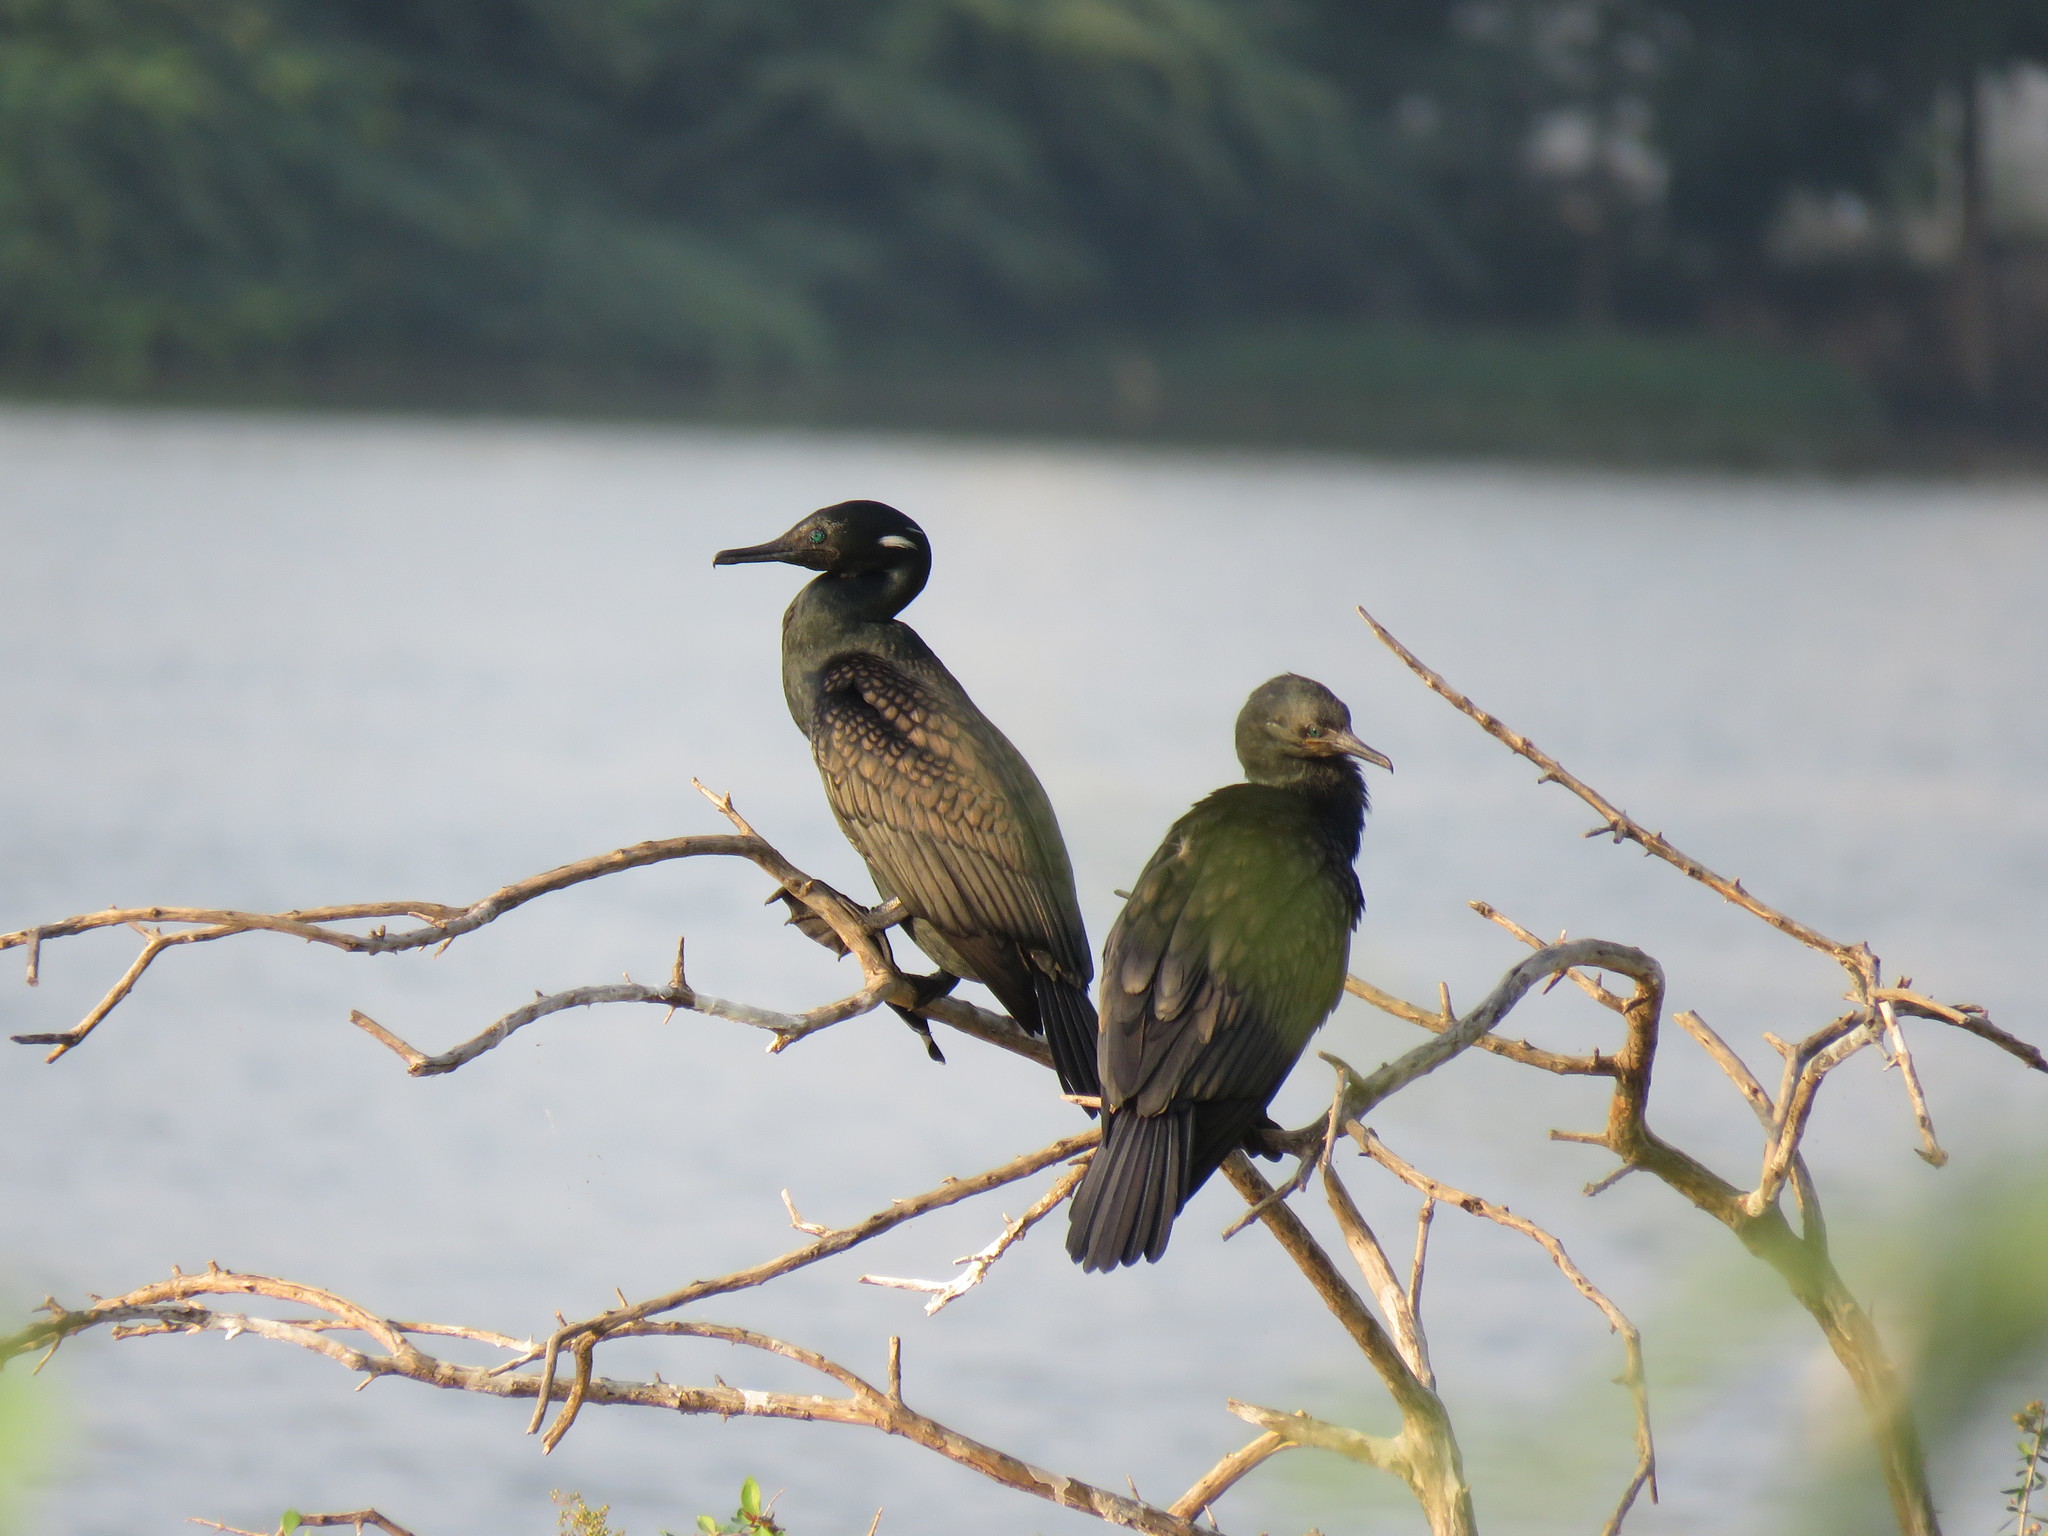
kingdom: Animalia
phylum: Chordata
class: Aves
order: Suliformes
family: Phalacrocoracidae
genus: Phalacrocorax
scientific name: Phalacrocorax fuscicollis
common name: Indian cormorant
